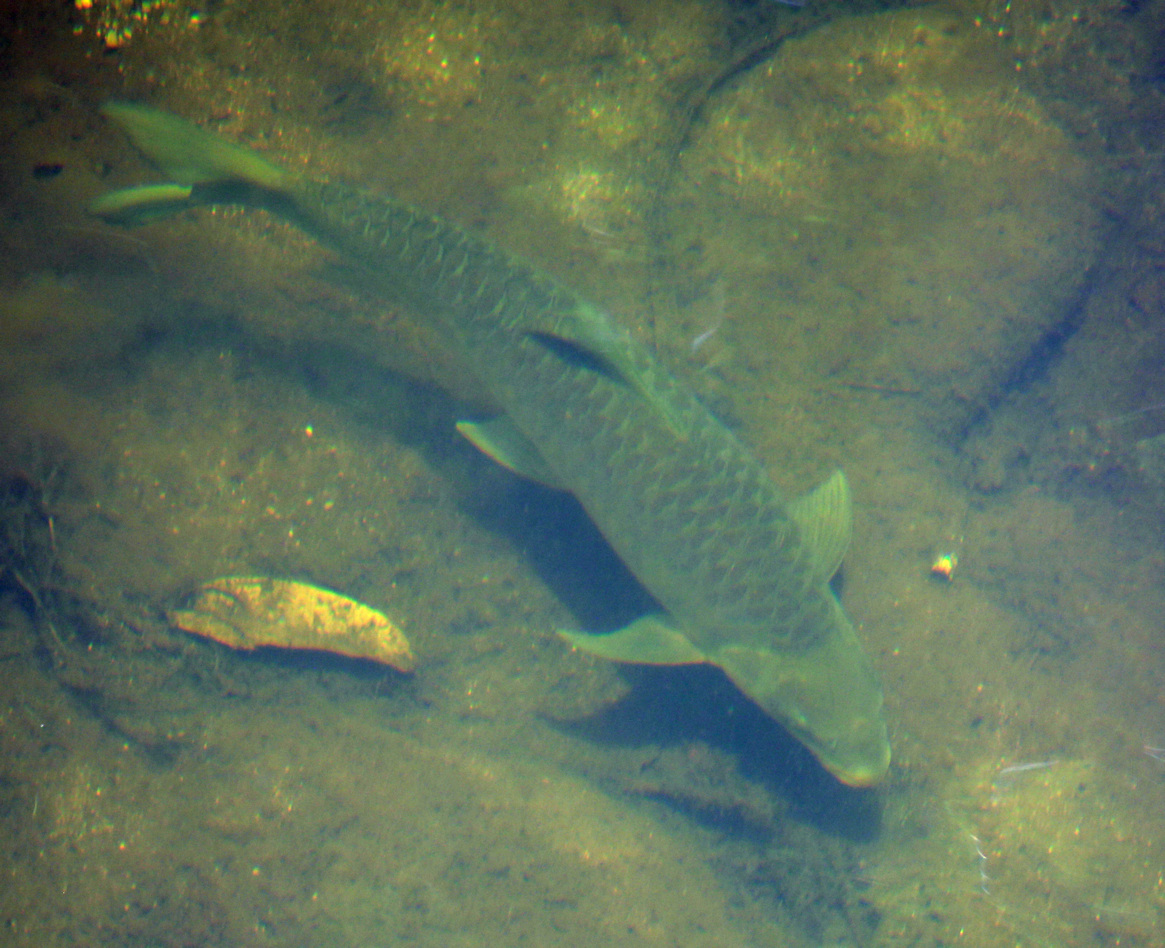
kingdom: Animalia
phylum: Chordata
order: Cypriniformes
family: Cyprinidae
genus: Labeobarbus
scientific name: Labeobarbus marequensis
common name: Largescale yellowfish
